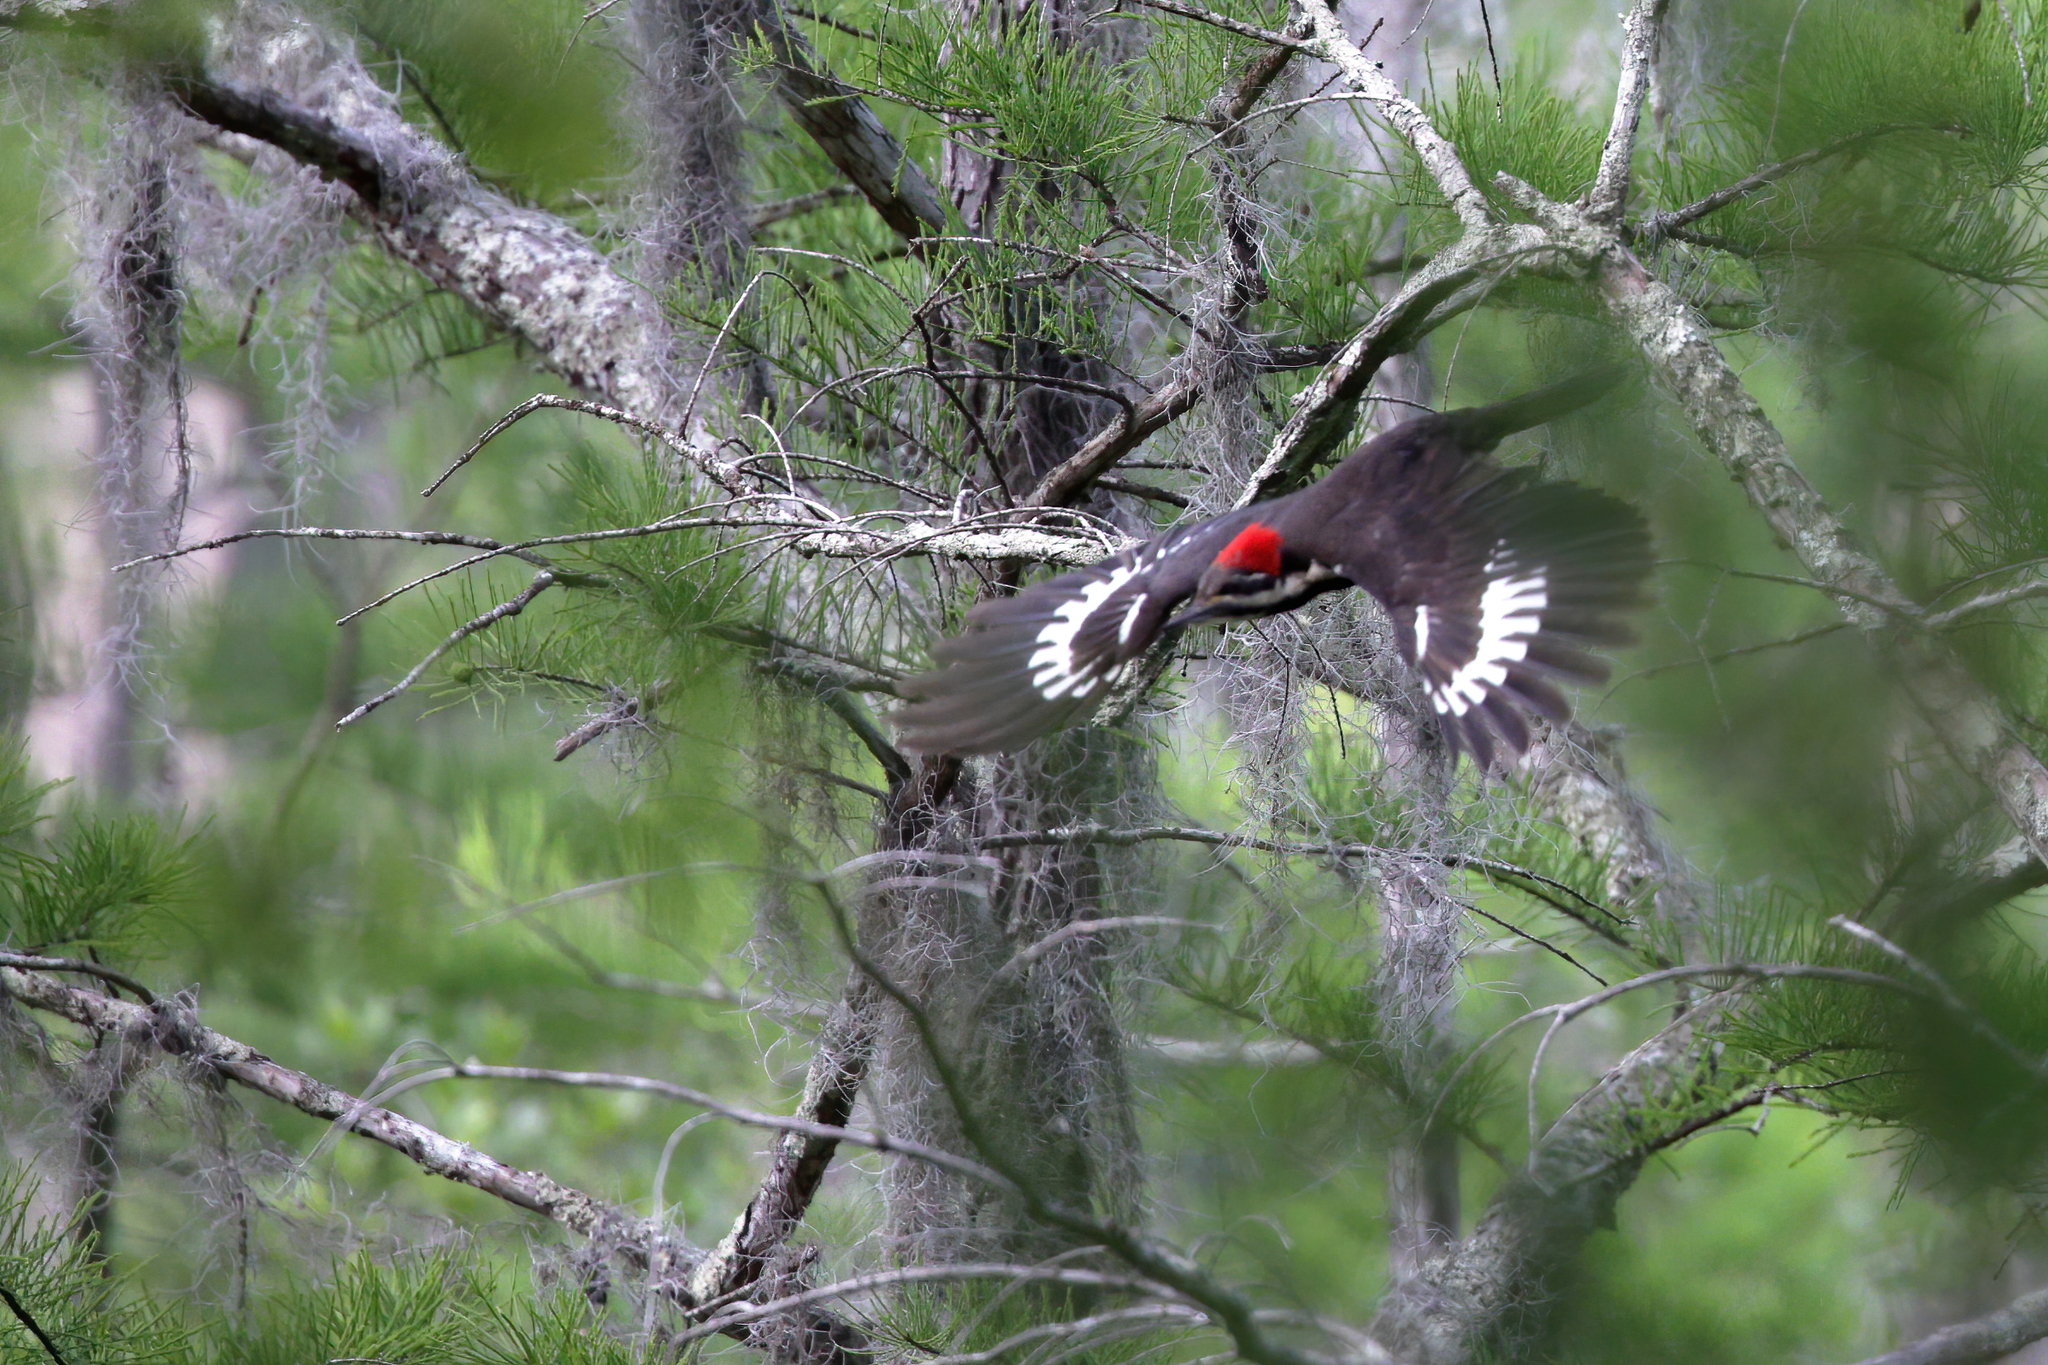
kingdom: Animalia
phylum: Chordata
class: Aves
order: Piciformes
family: Picidae
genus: Dryocopus
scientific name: Dryocopus pileatus
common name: Pileated woodpecker
